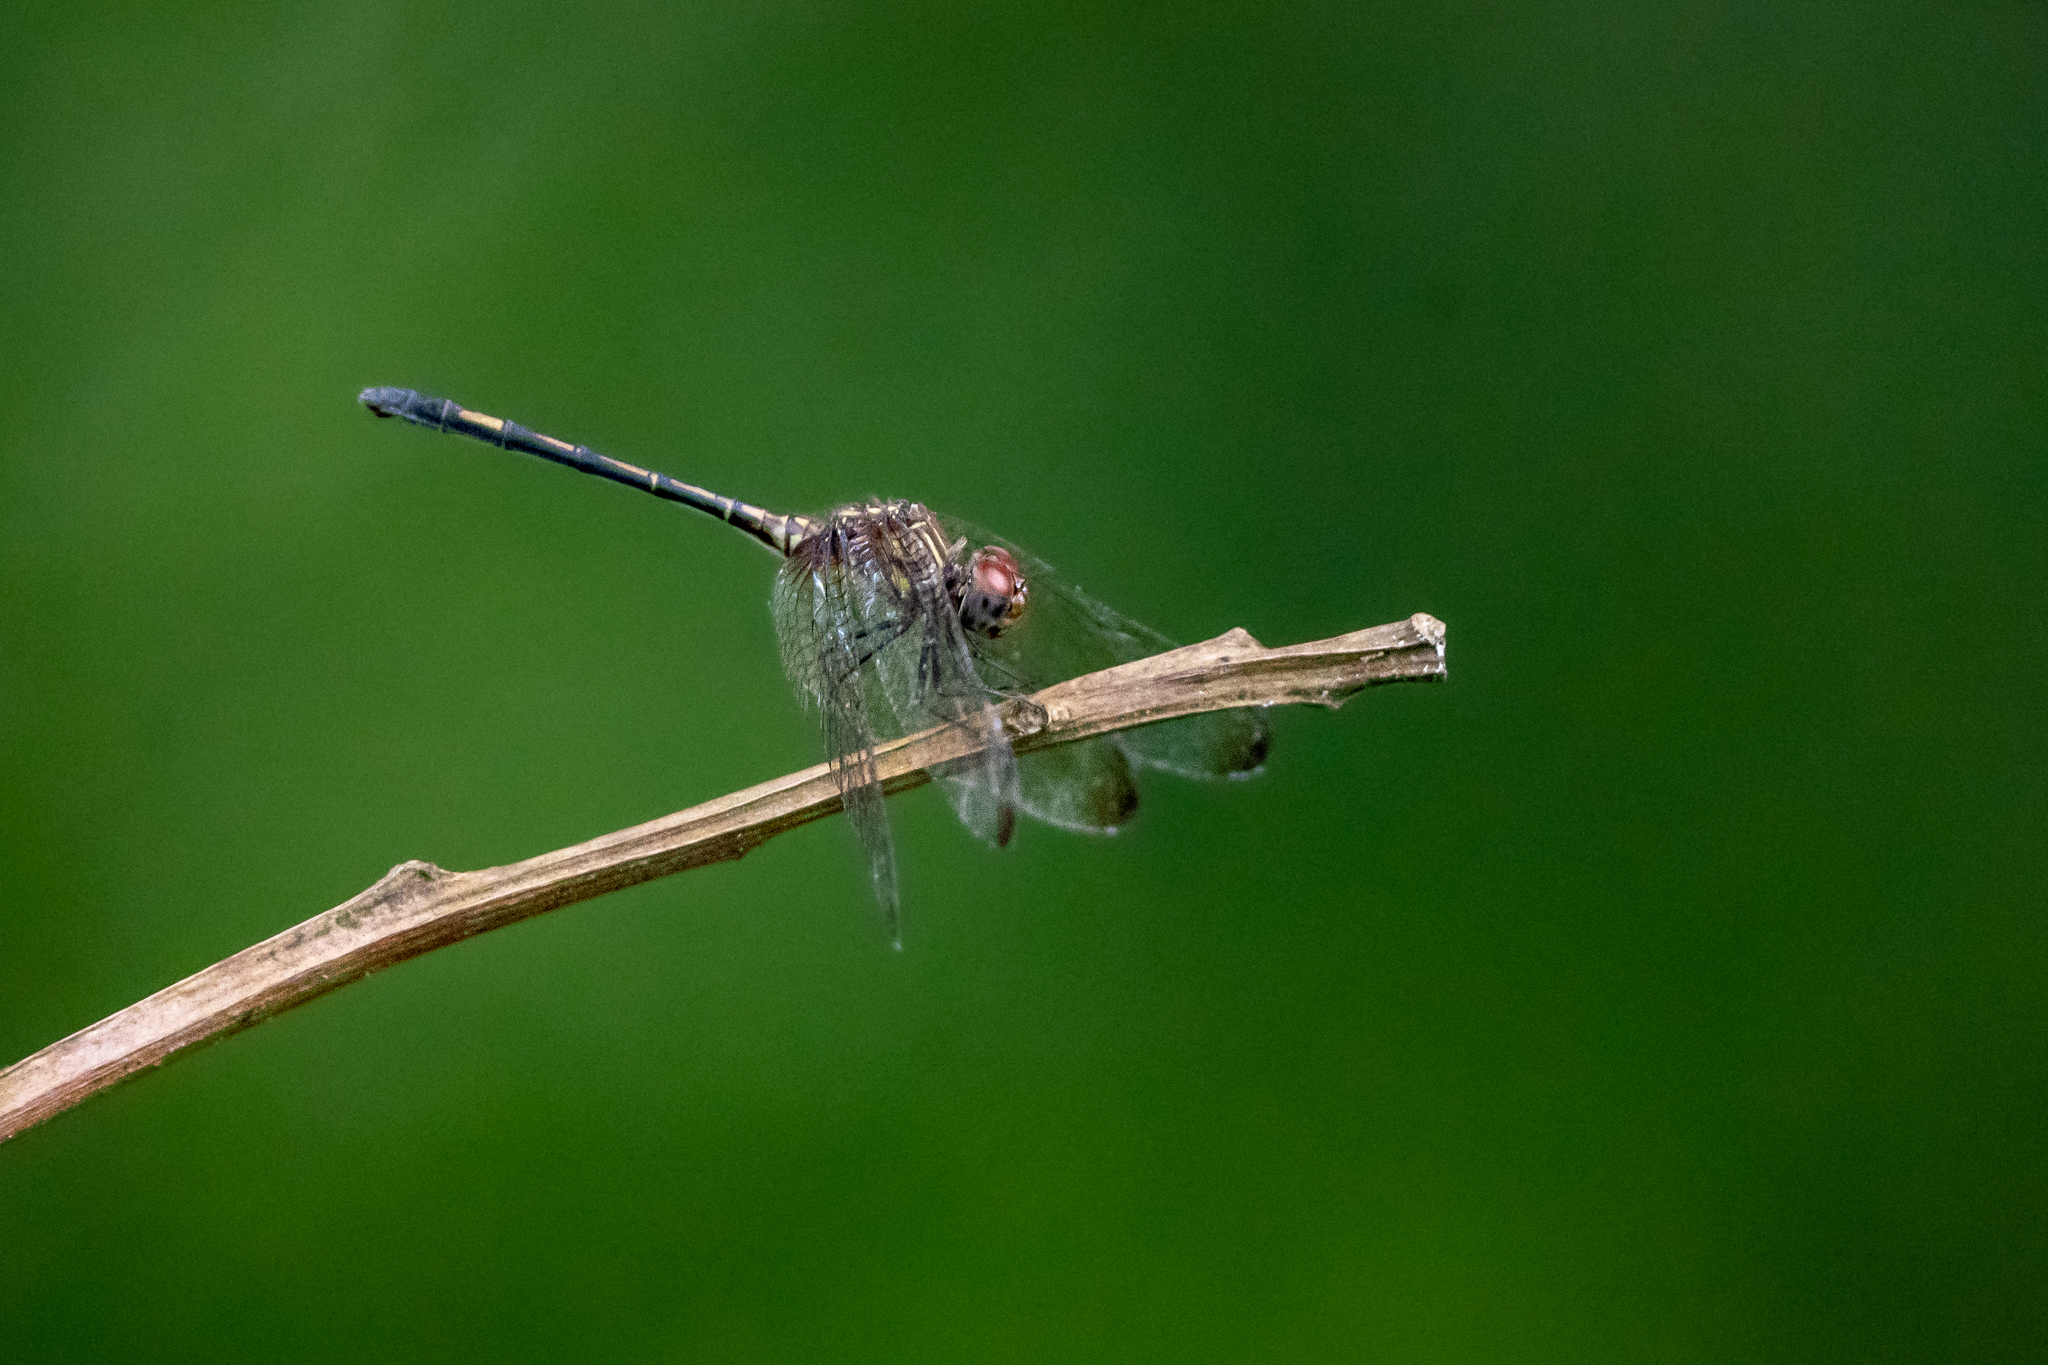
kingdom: Animalia
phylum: Arthropoda
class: Insecta
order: Odonata
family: Libellulidae
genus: Dythemis
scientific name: Dythemis sterilis
